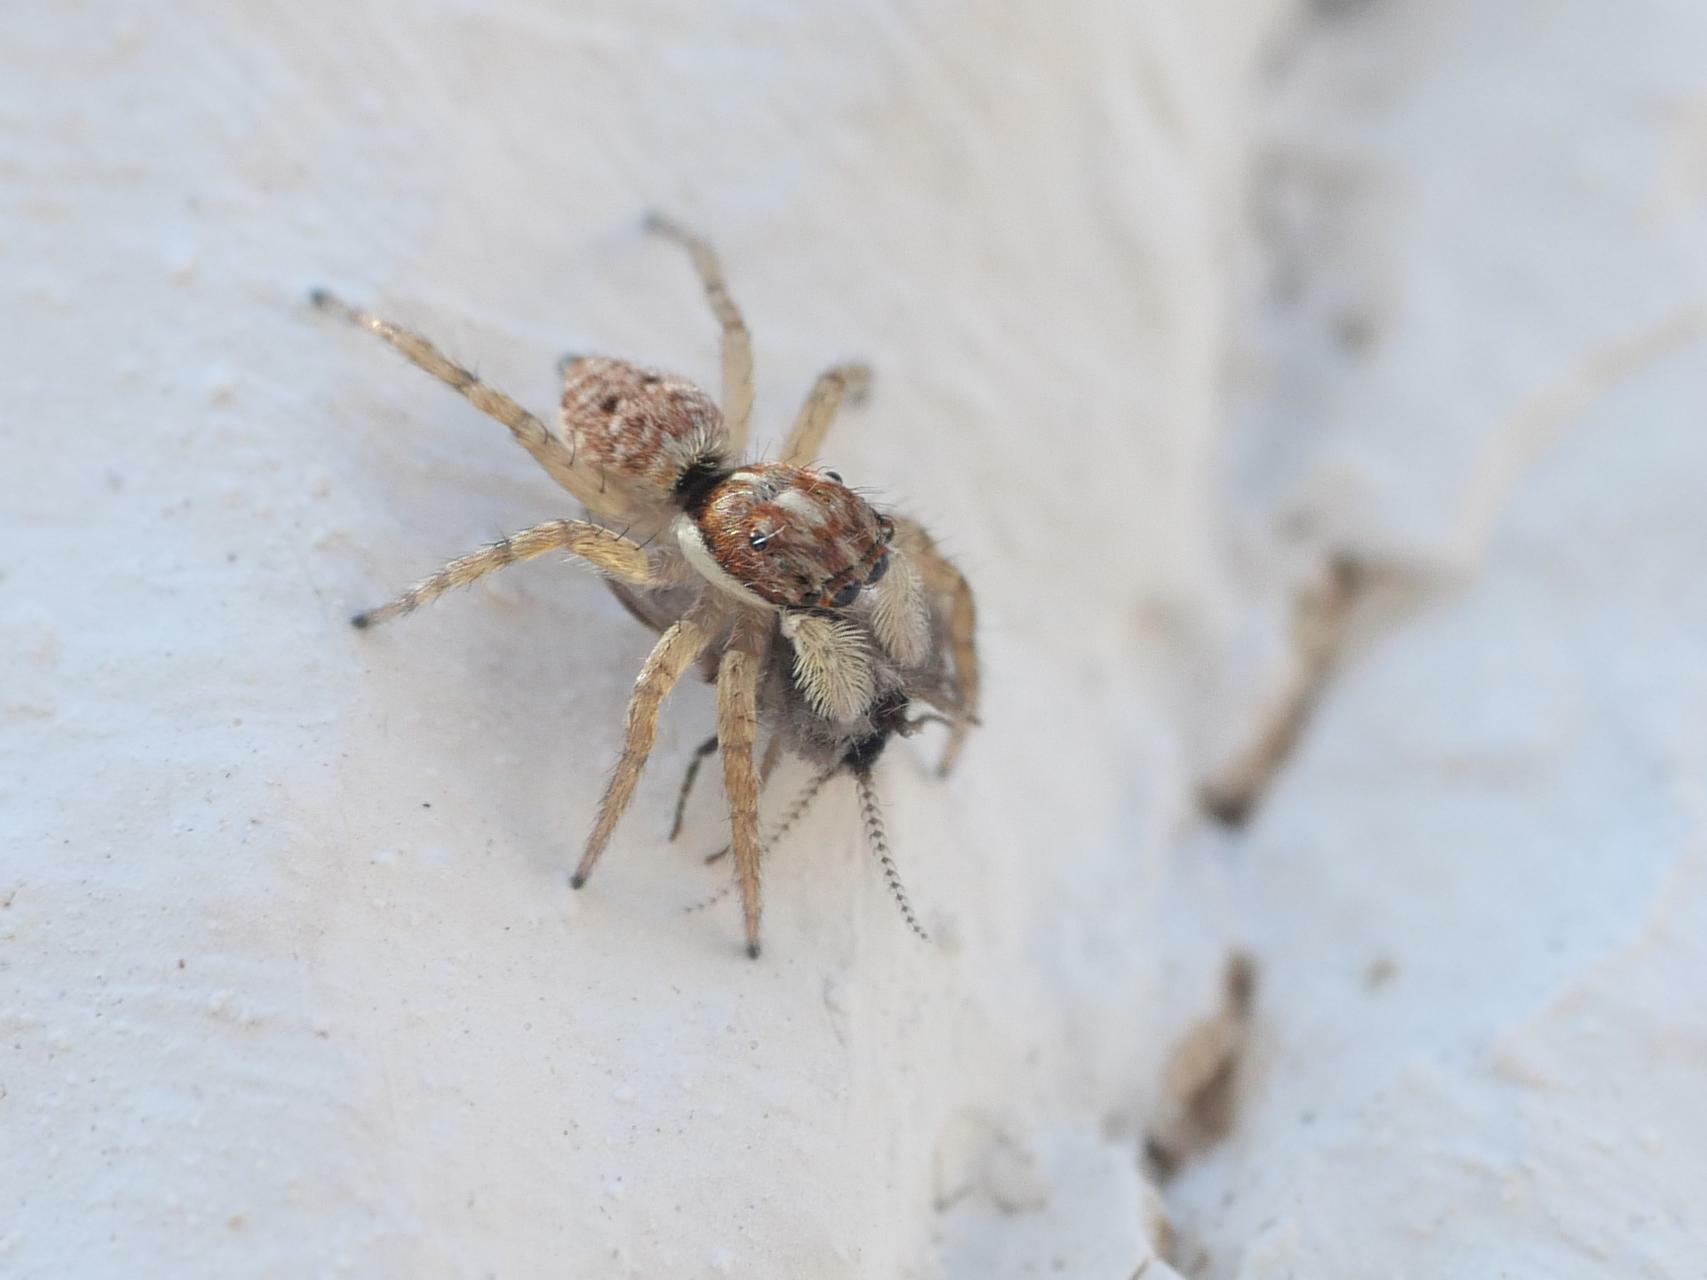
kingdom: Animalia
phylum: Arthropoda
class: Arachnida
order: Araneae
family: Salticidae
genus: Menemerus
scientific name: Menemerus semilimbatus
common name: Jumping spider
